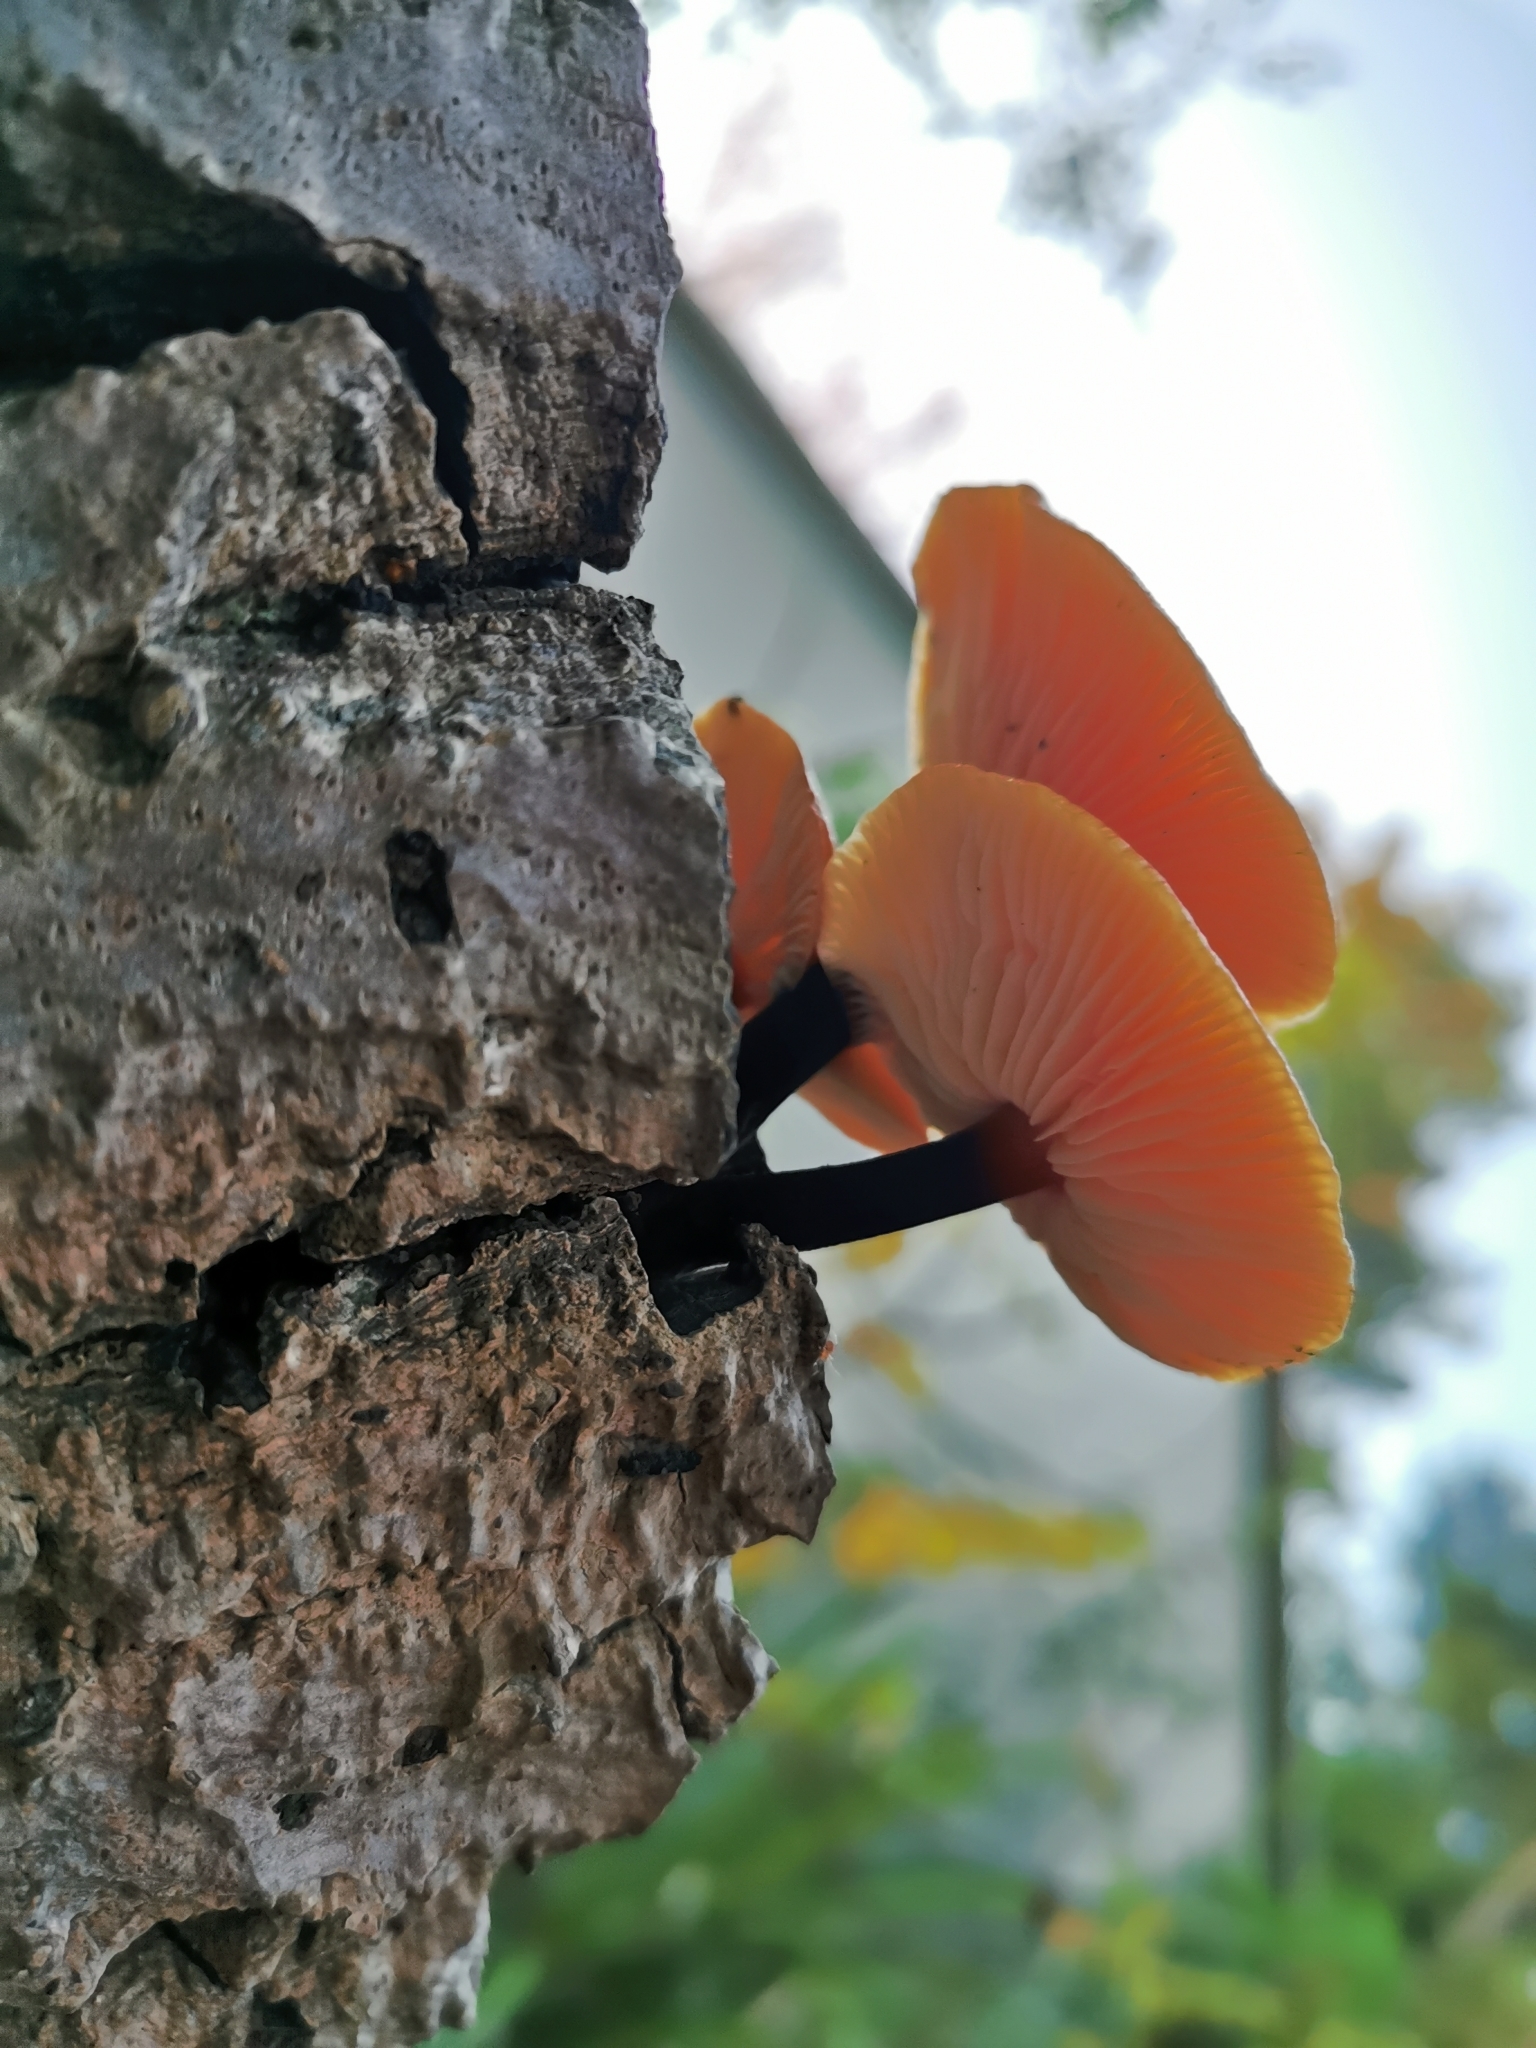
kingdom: Fungi
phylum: Basidiomycota
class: Agaricomycetes
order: Agaricales
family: Physalacriaceae
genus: Flammulina
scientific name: Flammulina velutipes
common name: Velvet shank
